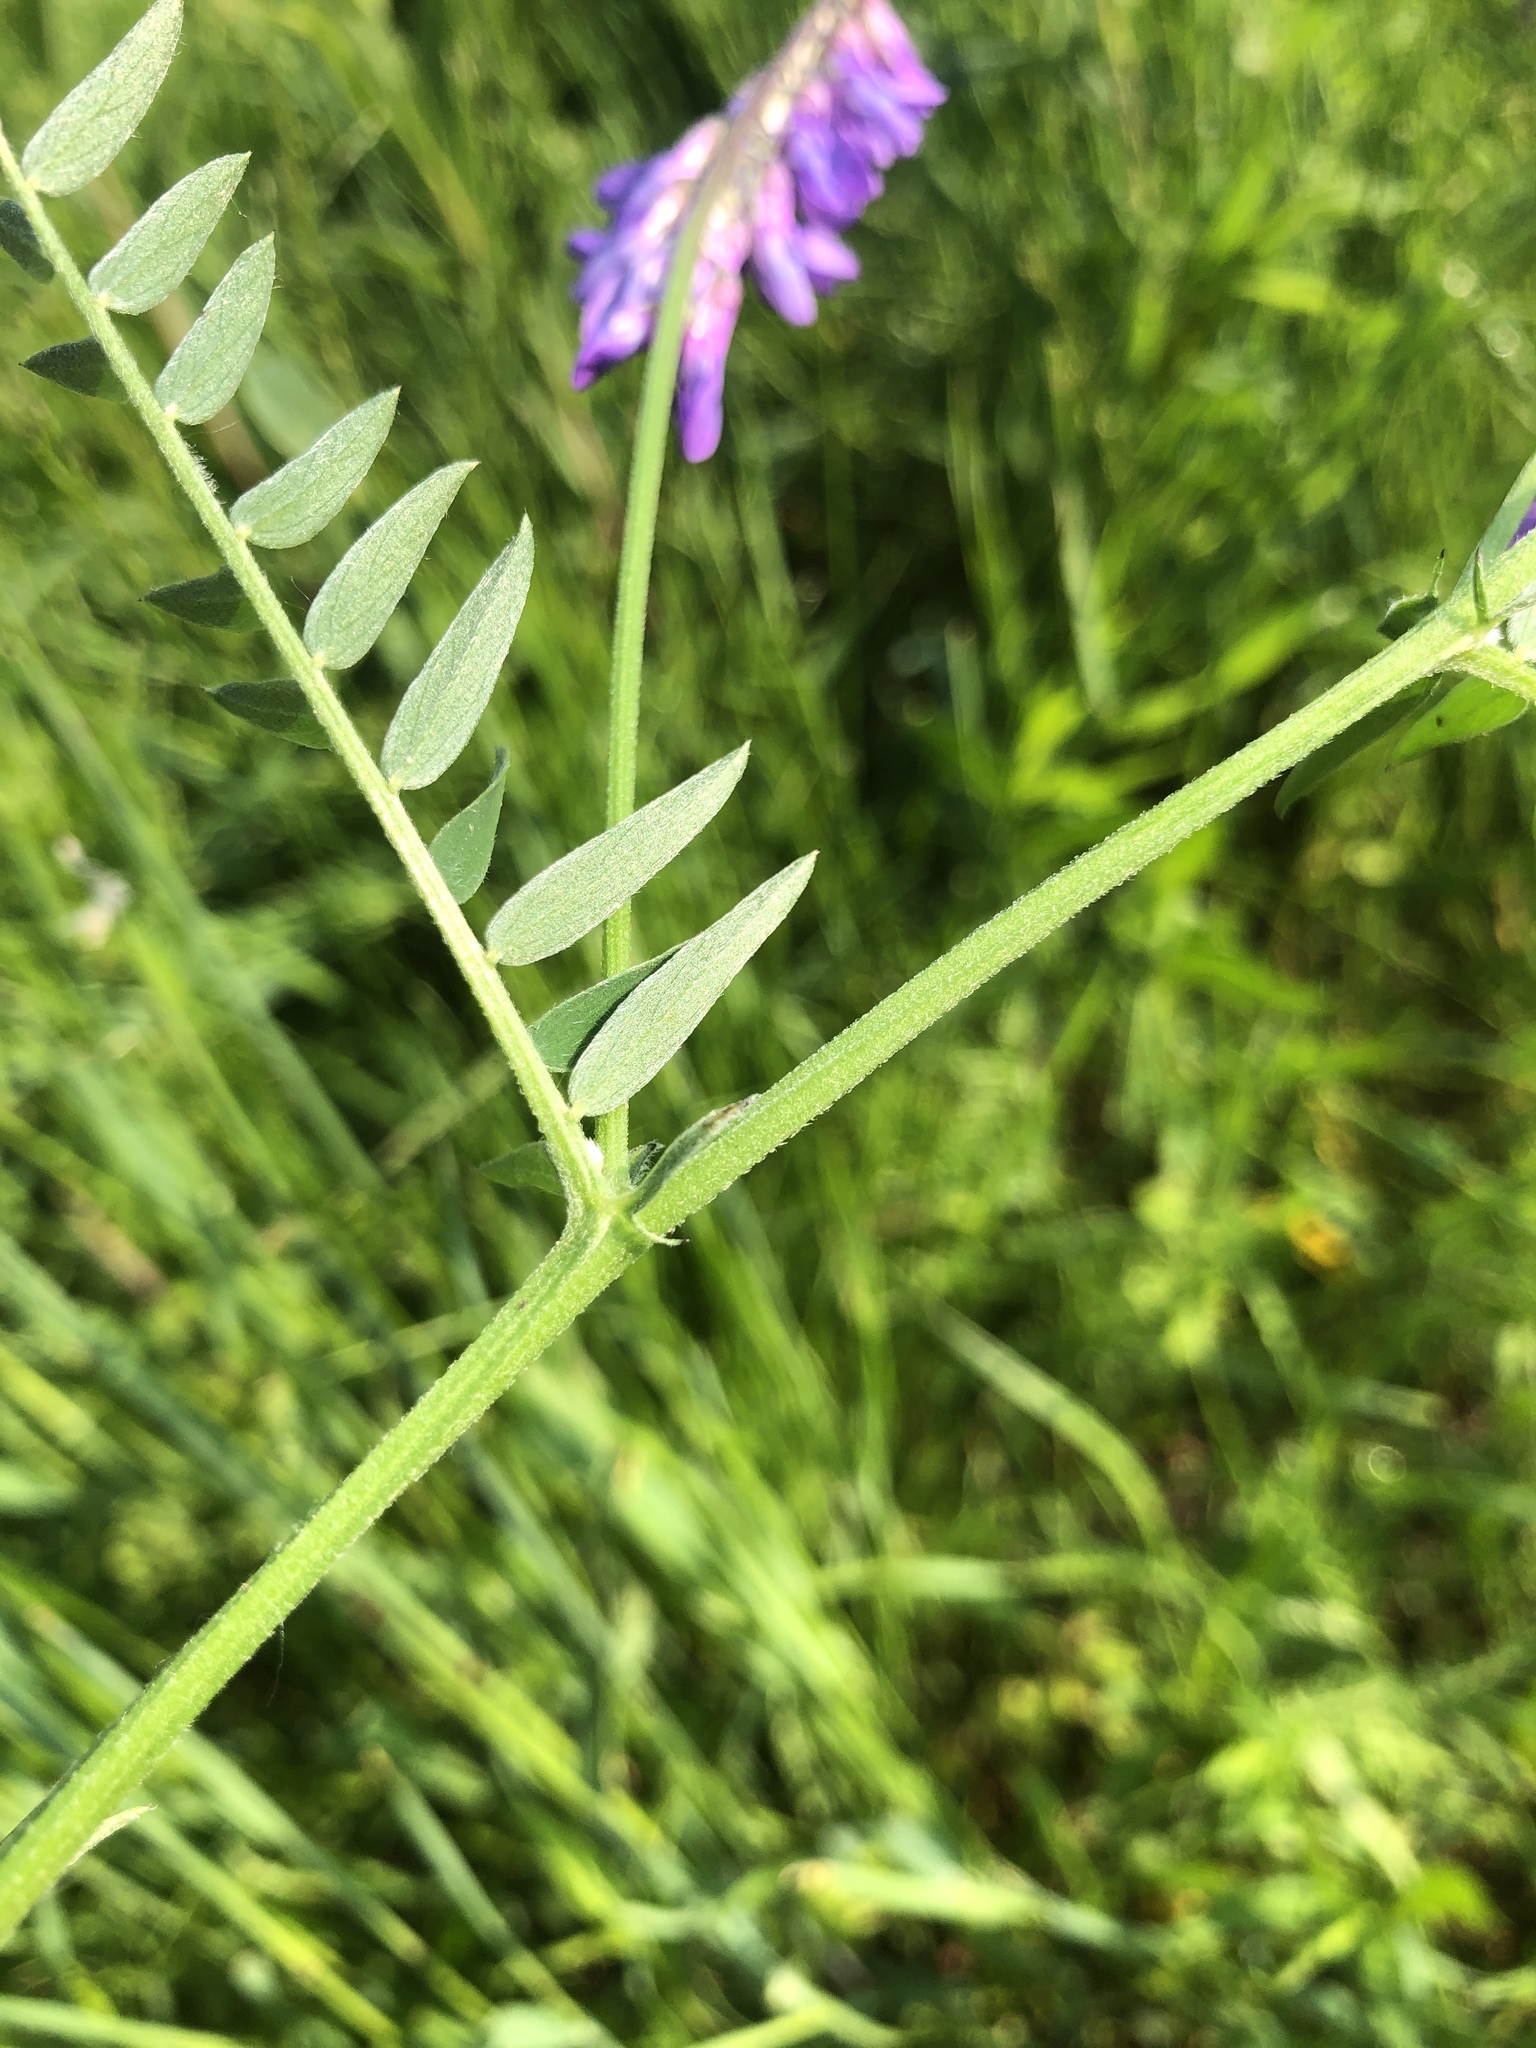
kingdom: Plantae
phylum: Tracheophyta
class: Magnoliopsida
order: Fabales
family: Fabaceae
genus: Vicia
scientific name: Vicia cracca
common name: Bird vetch
